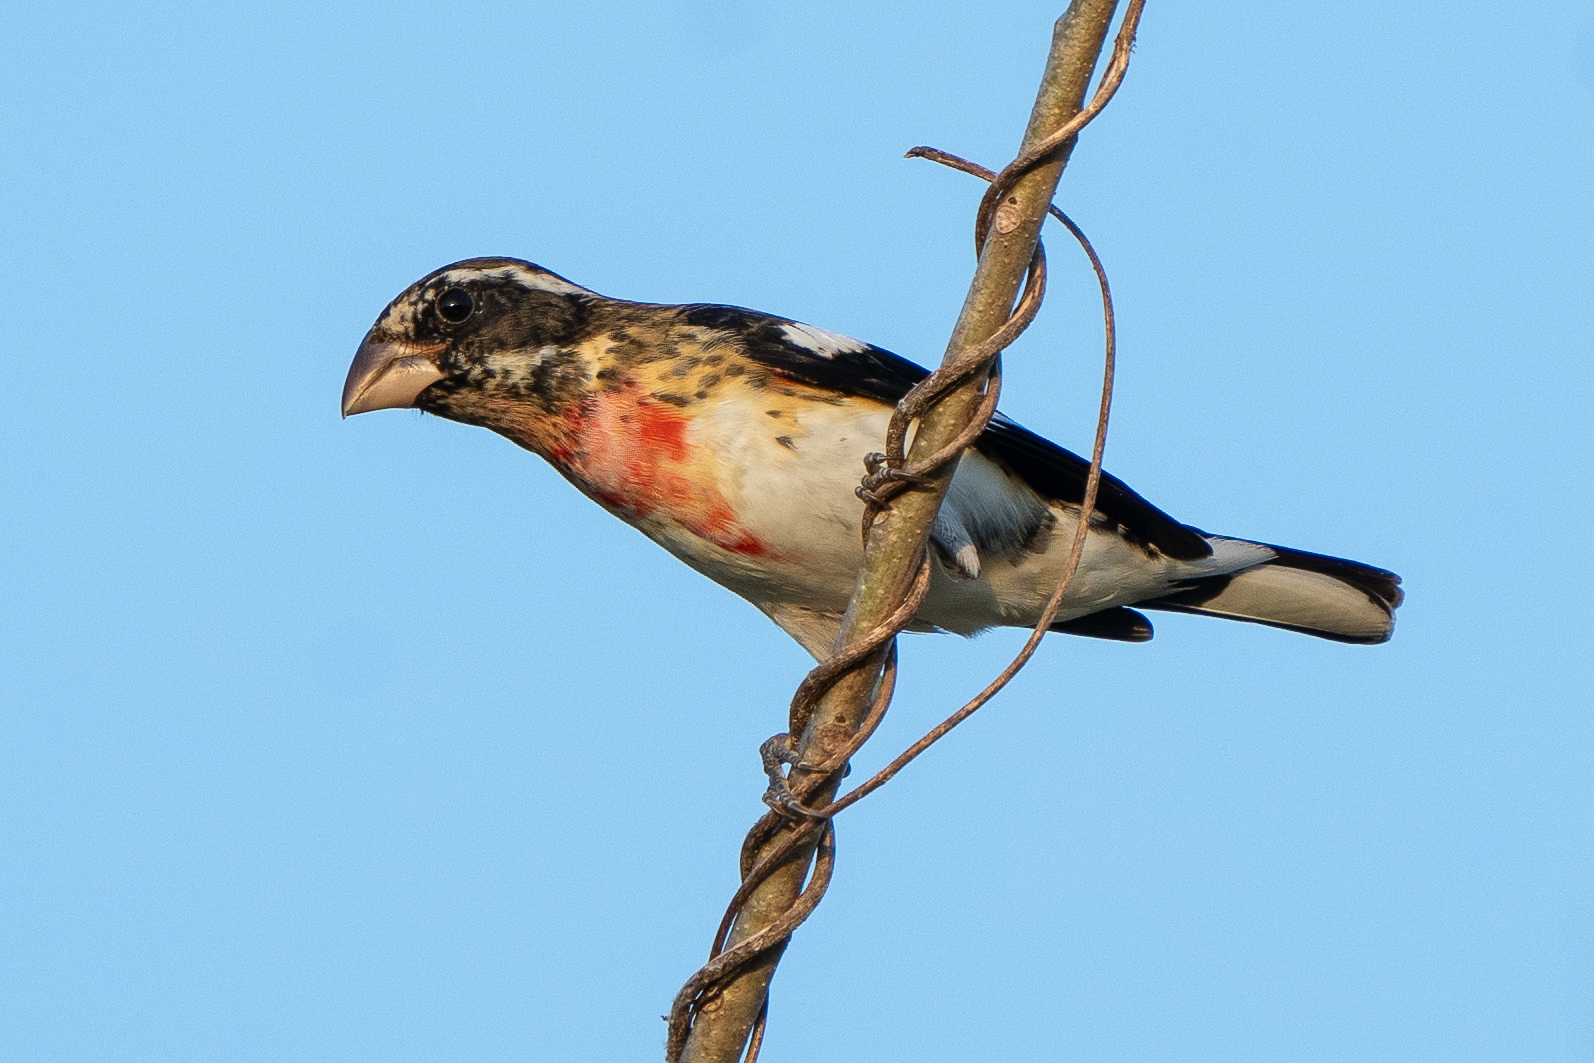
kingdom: Animalia
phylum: Chordata
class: Aves
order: Passeriformes
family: Cardinalidae
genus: Pheucticus
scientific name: Pheucticus ludovicianus
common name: Rose-breasted grosbeak
